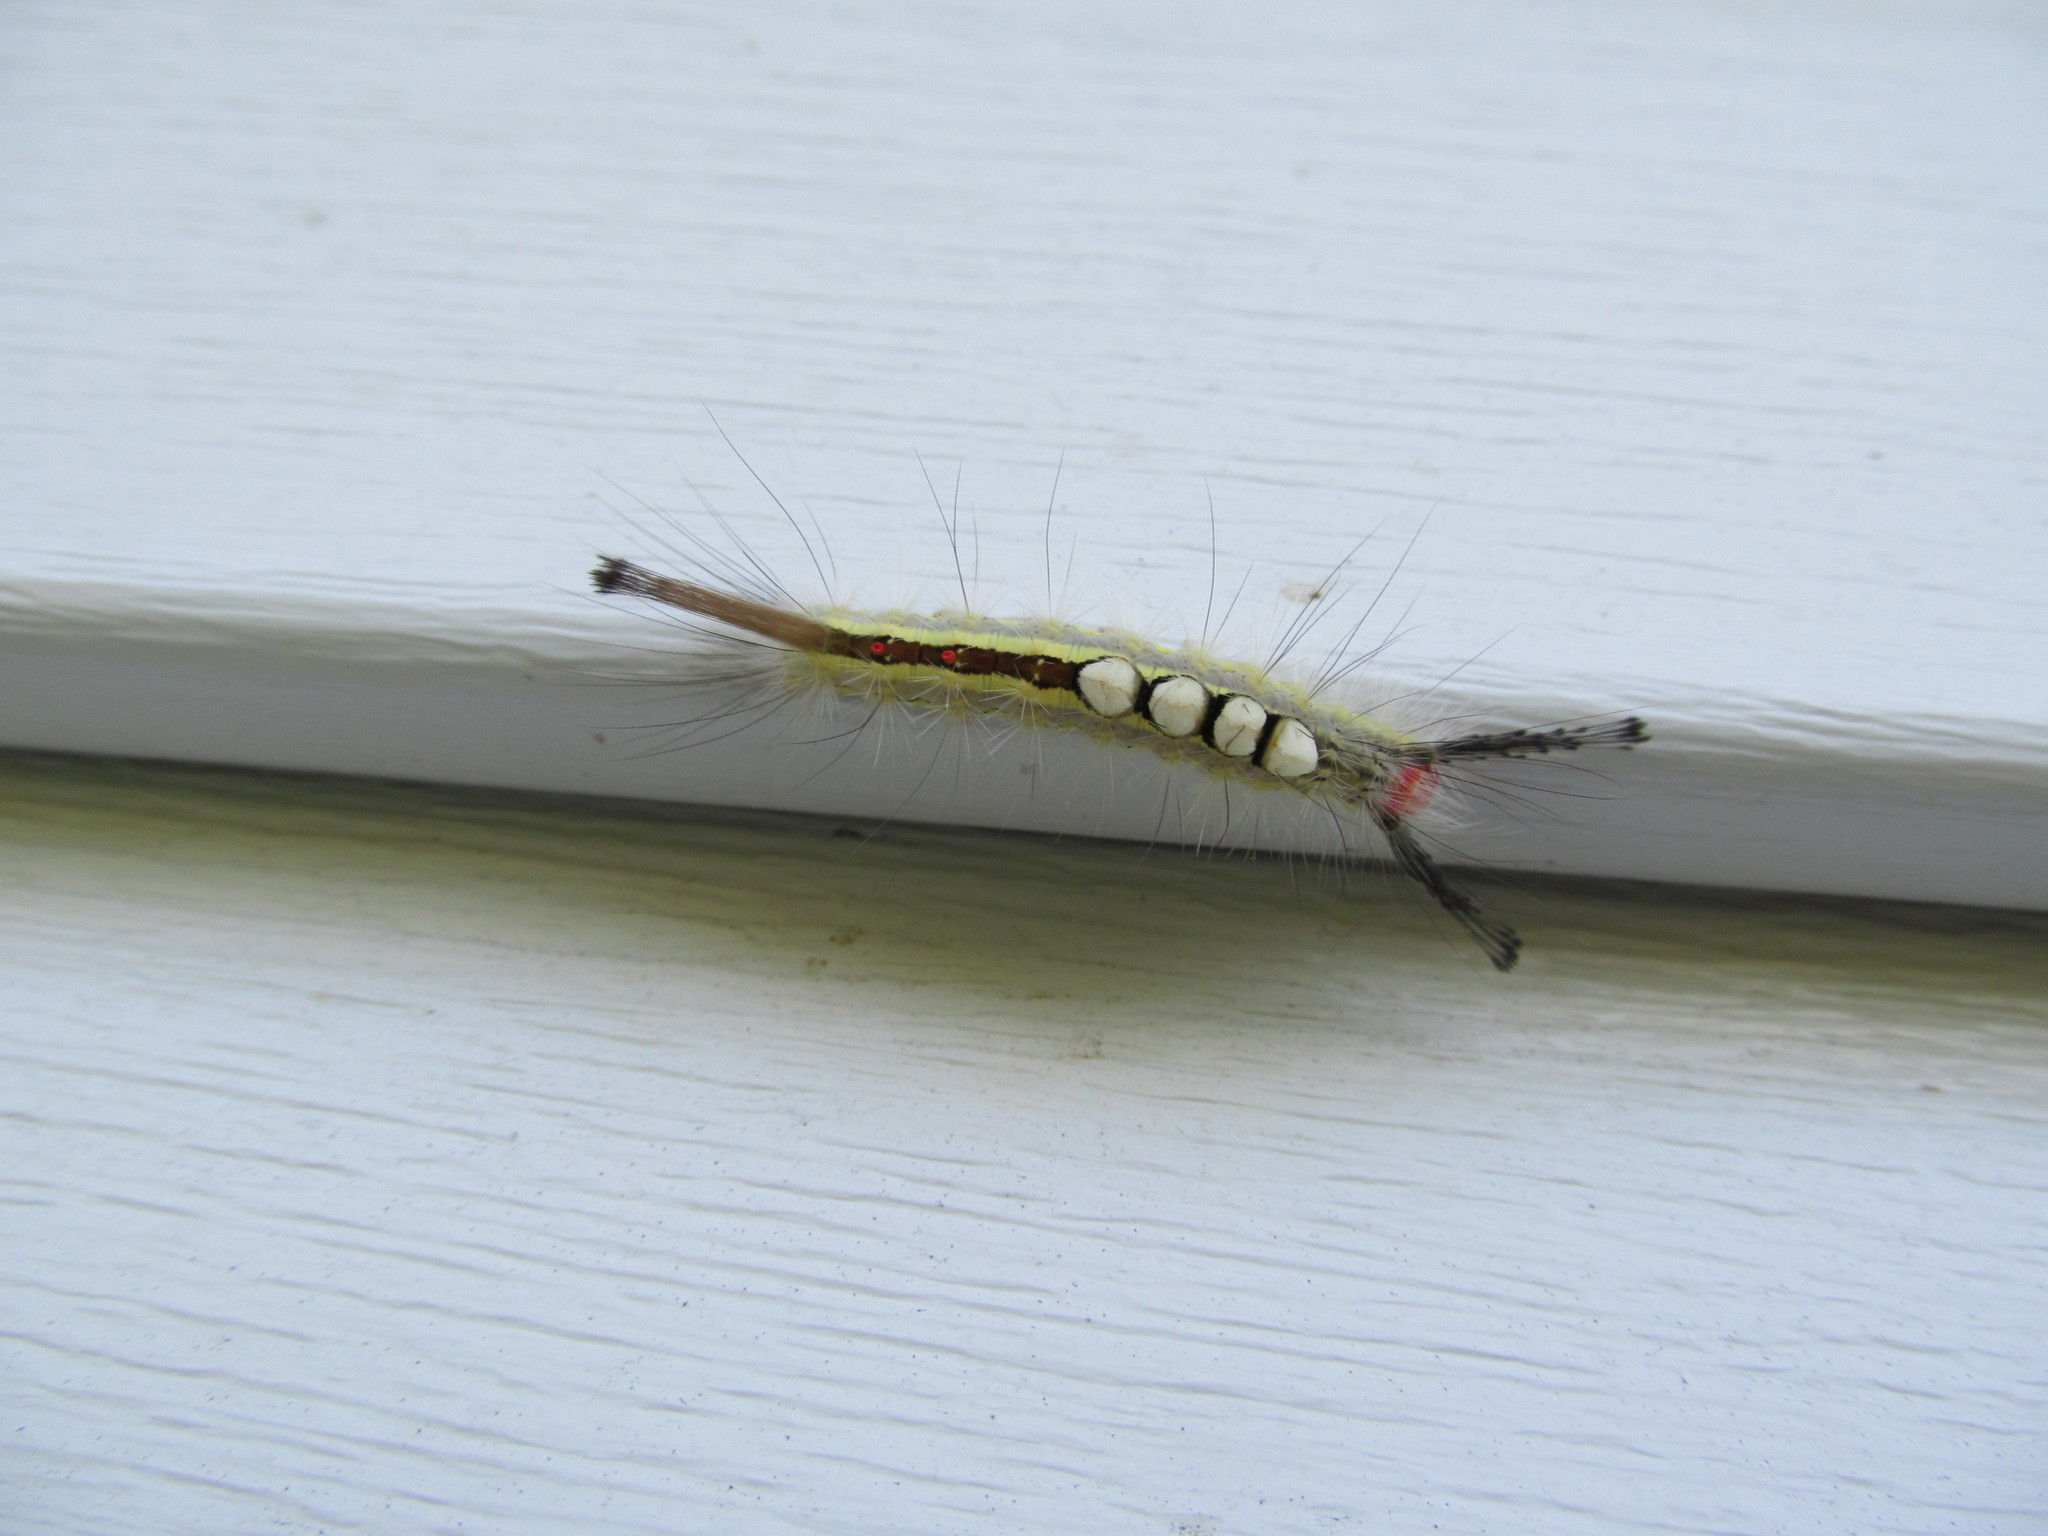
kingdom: Animalia
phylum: Arthropoda
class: Insecta
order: Lepidoptera
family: Erebidae
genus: Orgyia
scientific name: Orgyia leucostigma
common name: White-marked tussock moth
